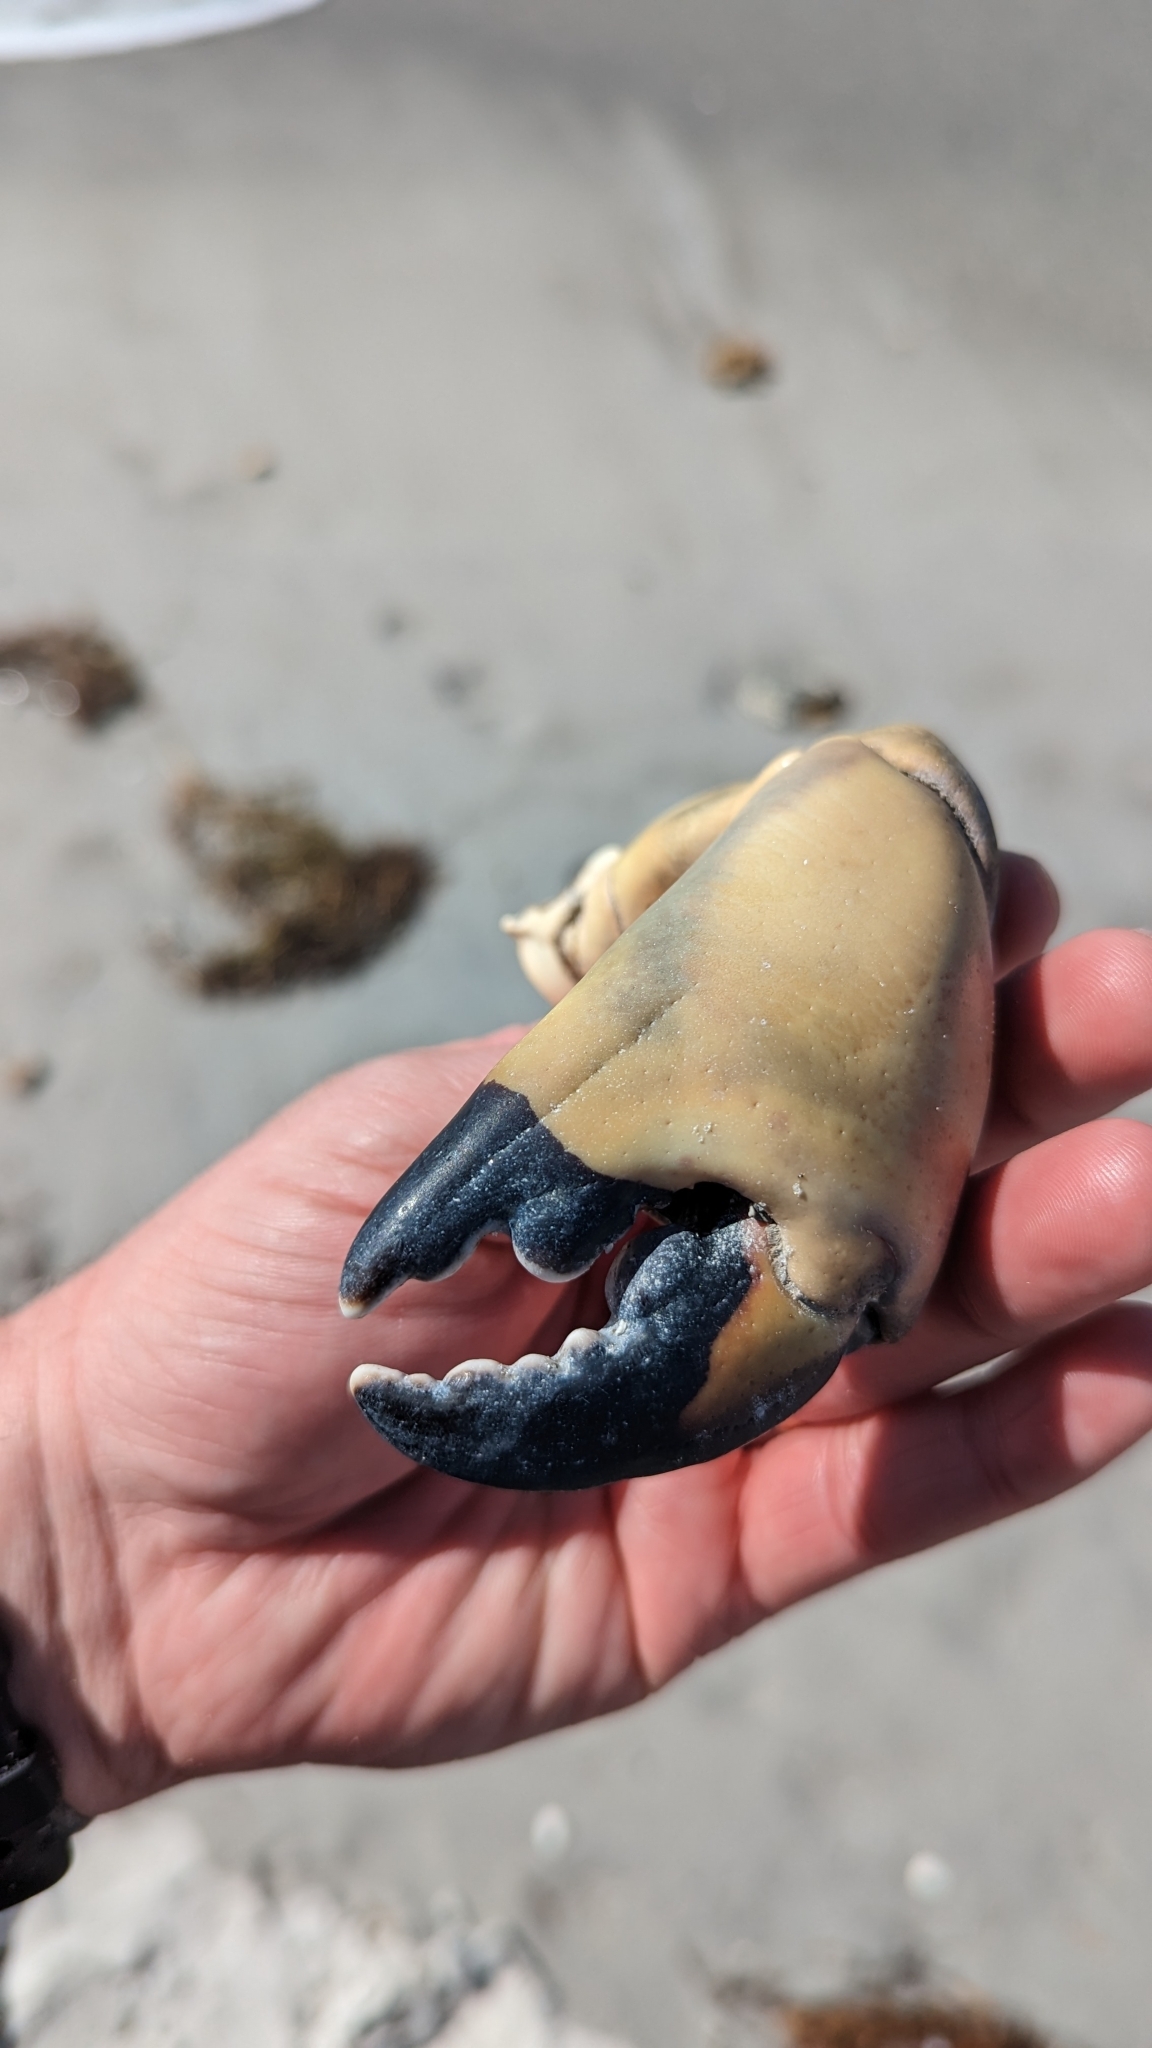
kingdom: Animalia
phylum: Arthropoda
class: Malacostraca
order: Decapoda
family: Menippidae
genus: Menippe
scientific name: Menippe mercenaria
